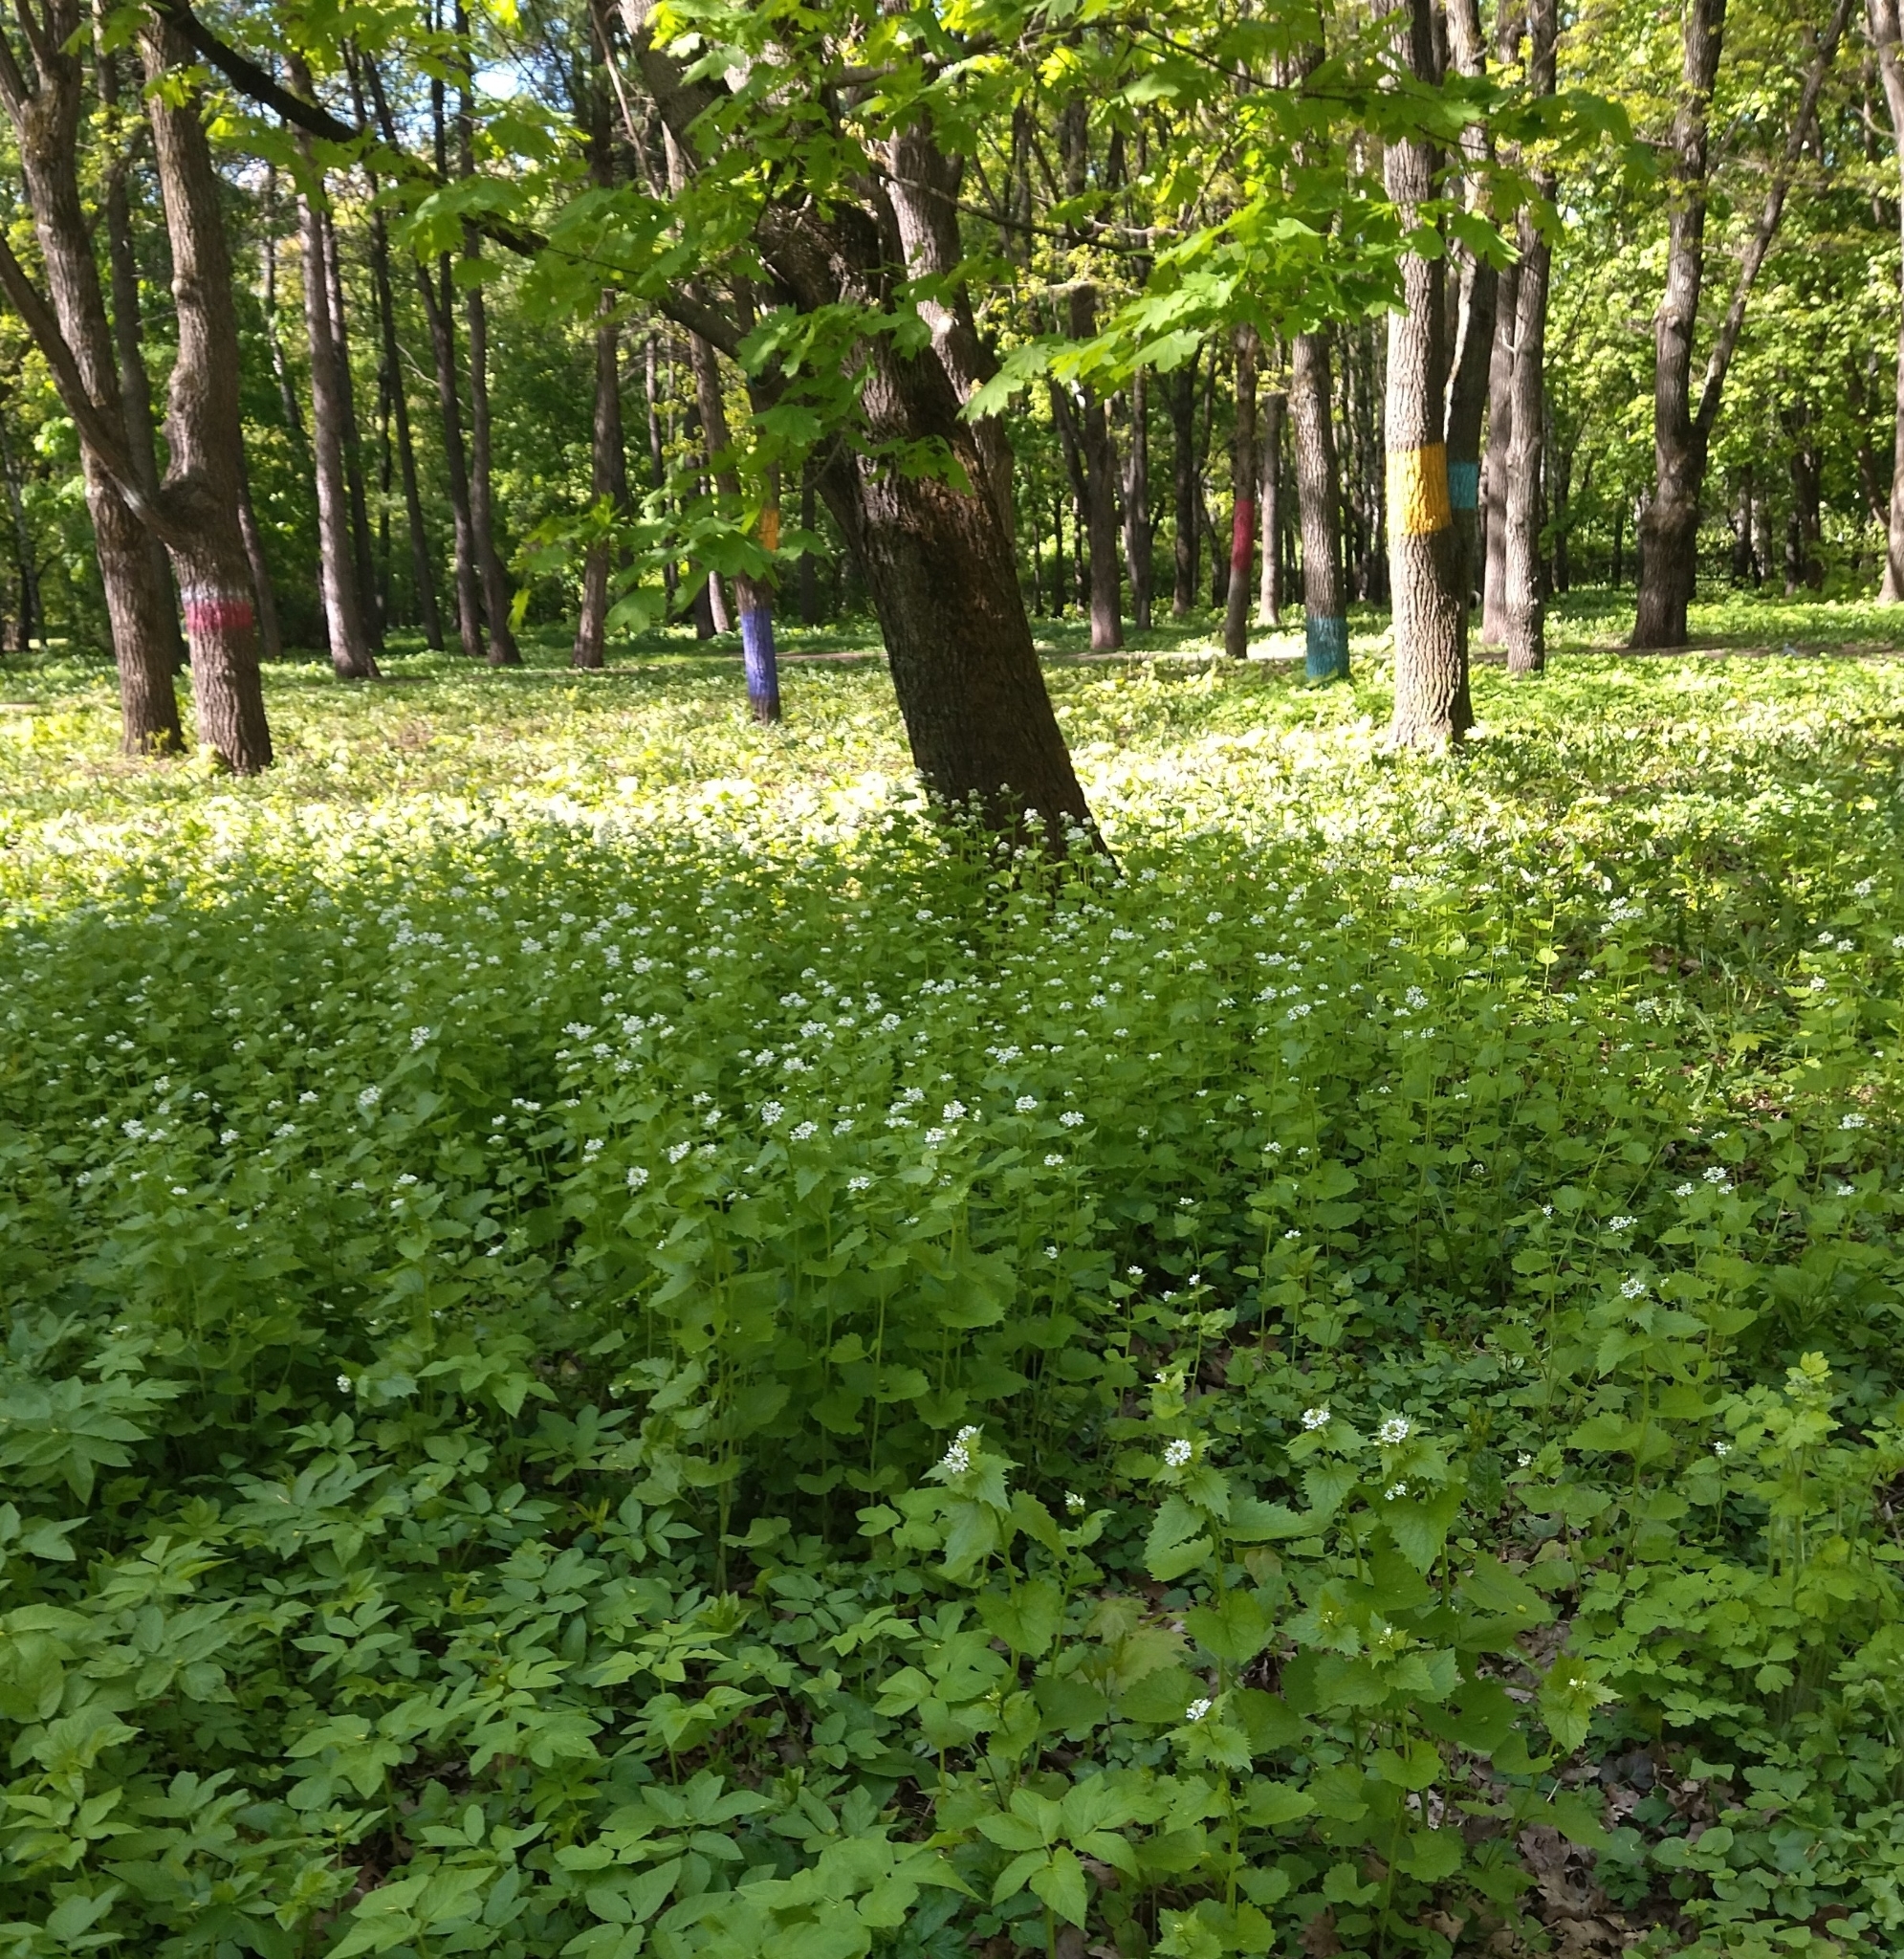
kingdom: Plantae
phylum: Tracheophyta
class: Magnoliopsida
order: Brassicales
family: Brassicaceae
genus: Alliaria
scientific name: Alliaria petiolata
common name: Garlic mustard
